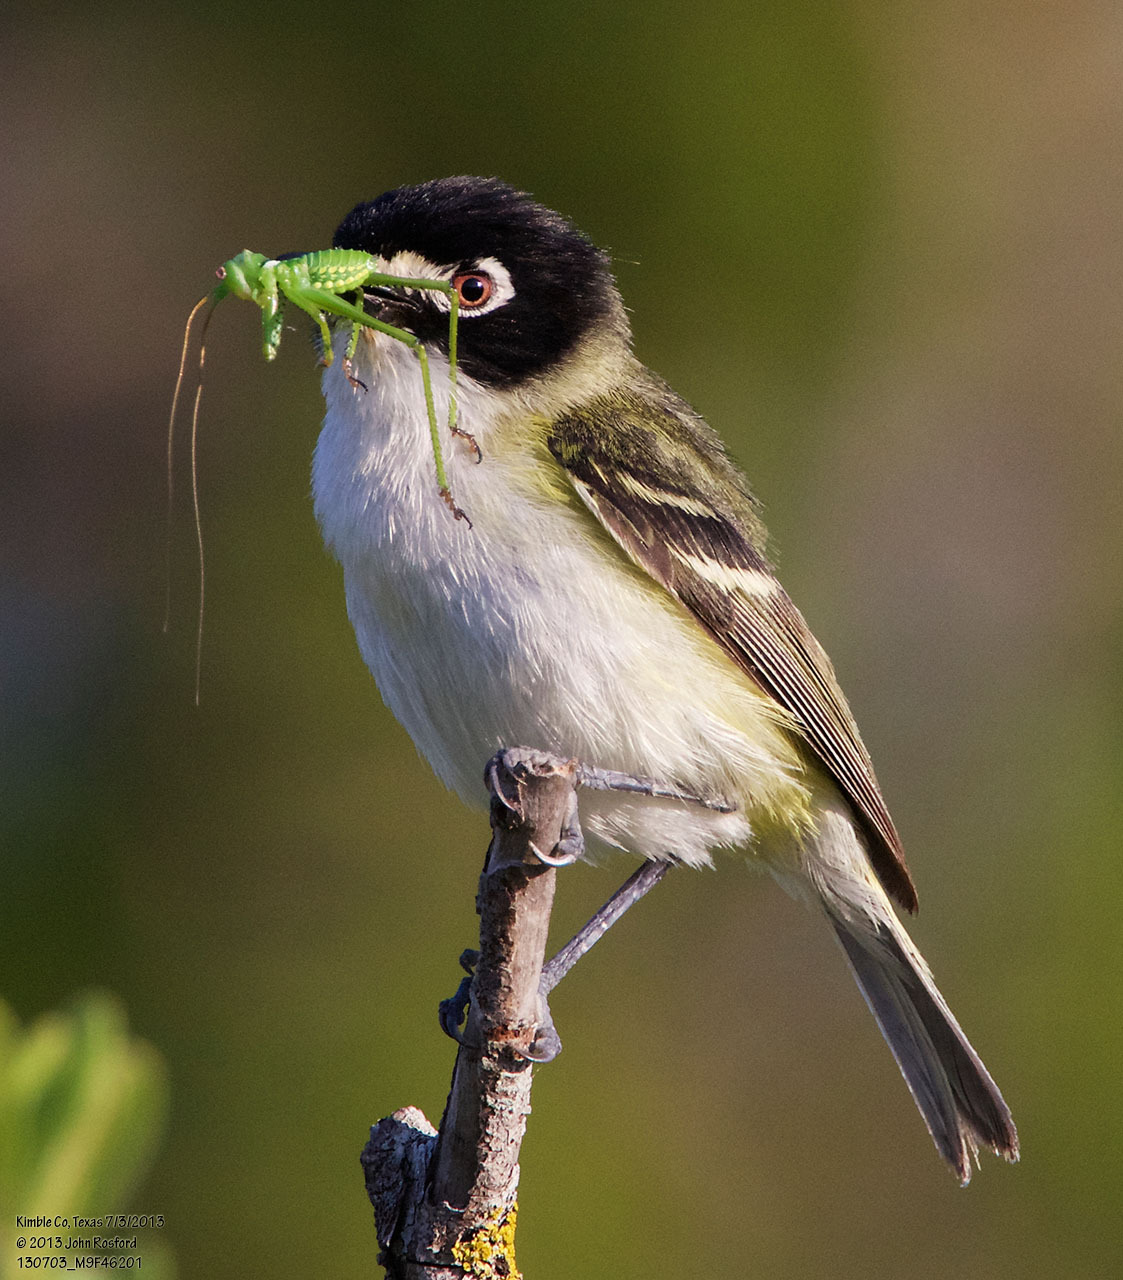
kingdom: Animalia
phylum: Chordata
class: Aves
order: Passeriformes
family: Vireonidae
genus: Vireo
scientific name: Vireo atricapilla
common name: Black-capped vireo
